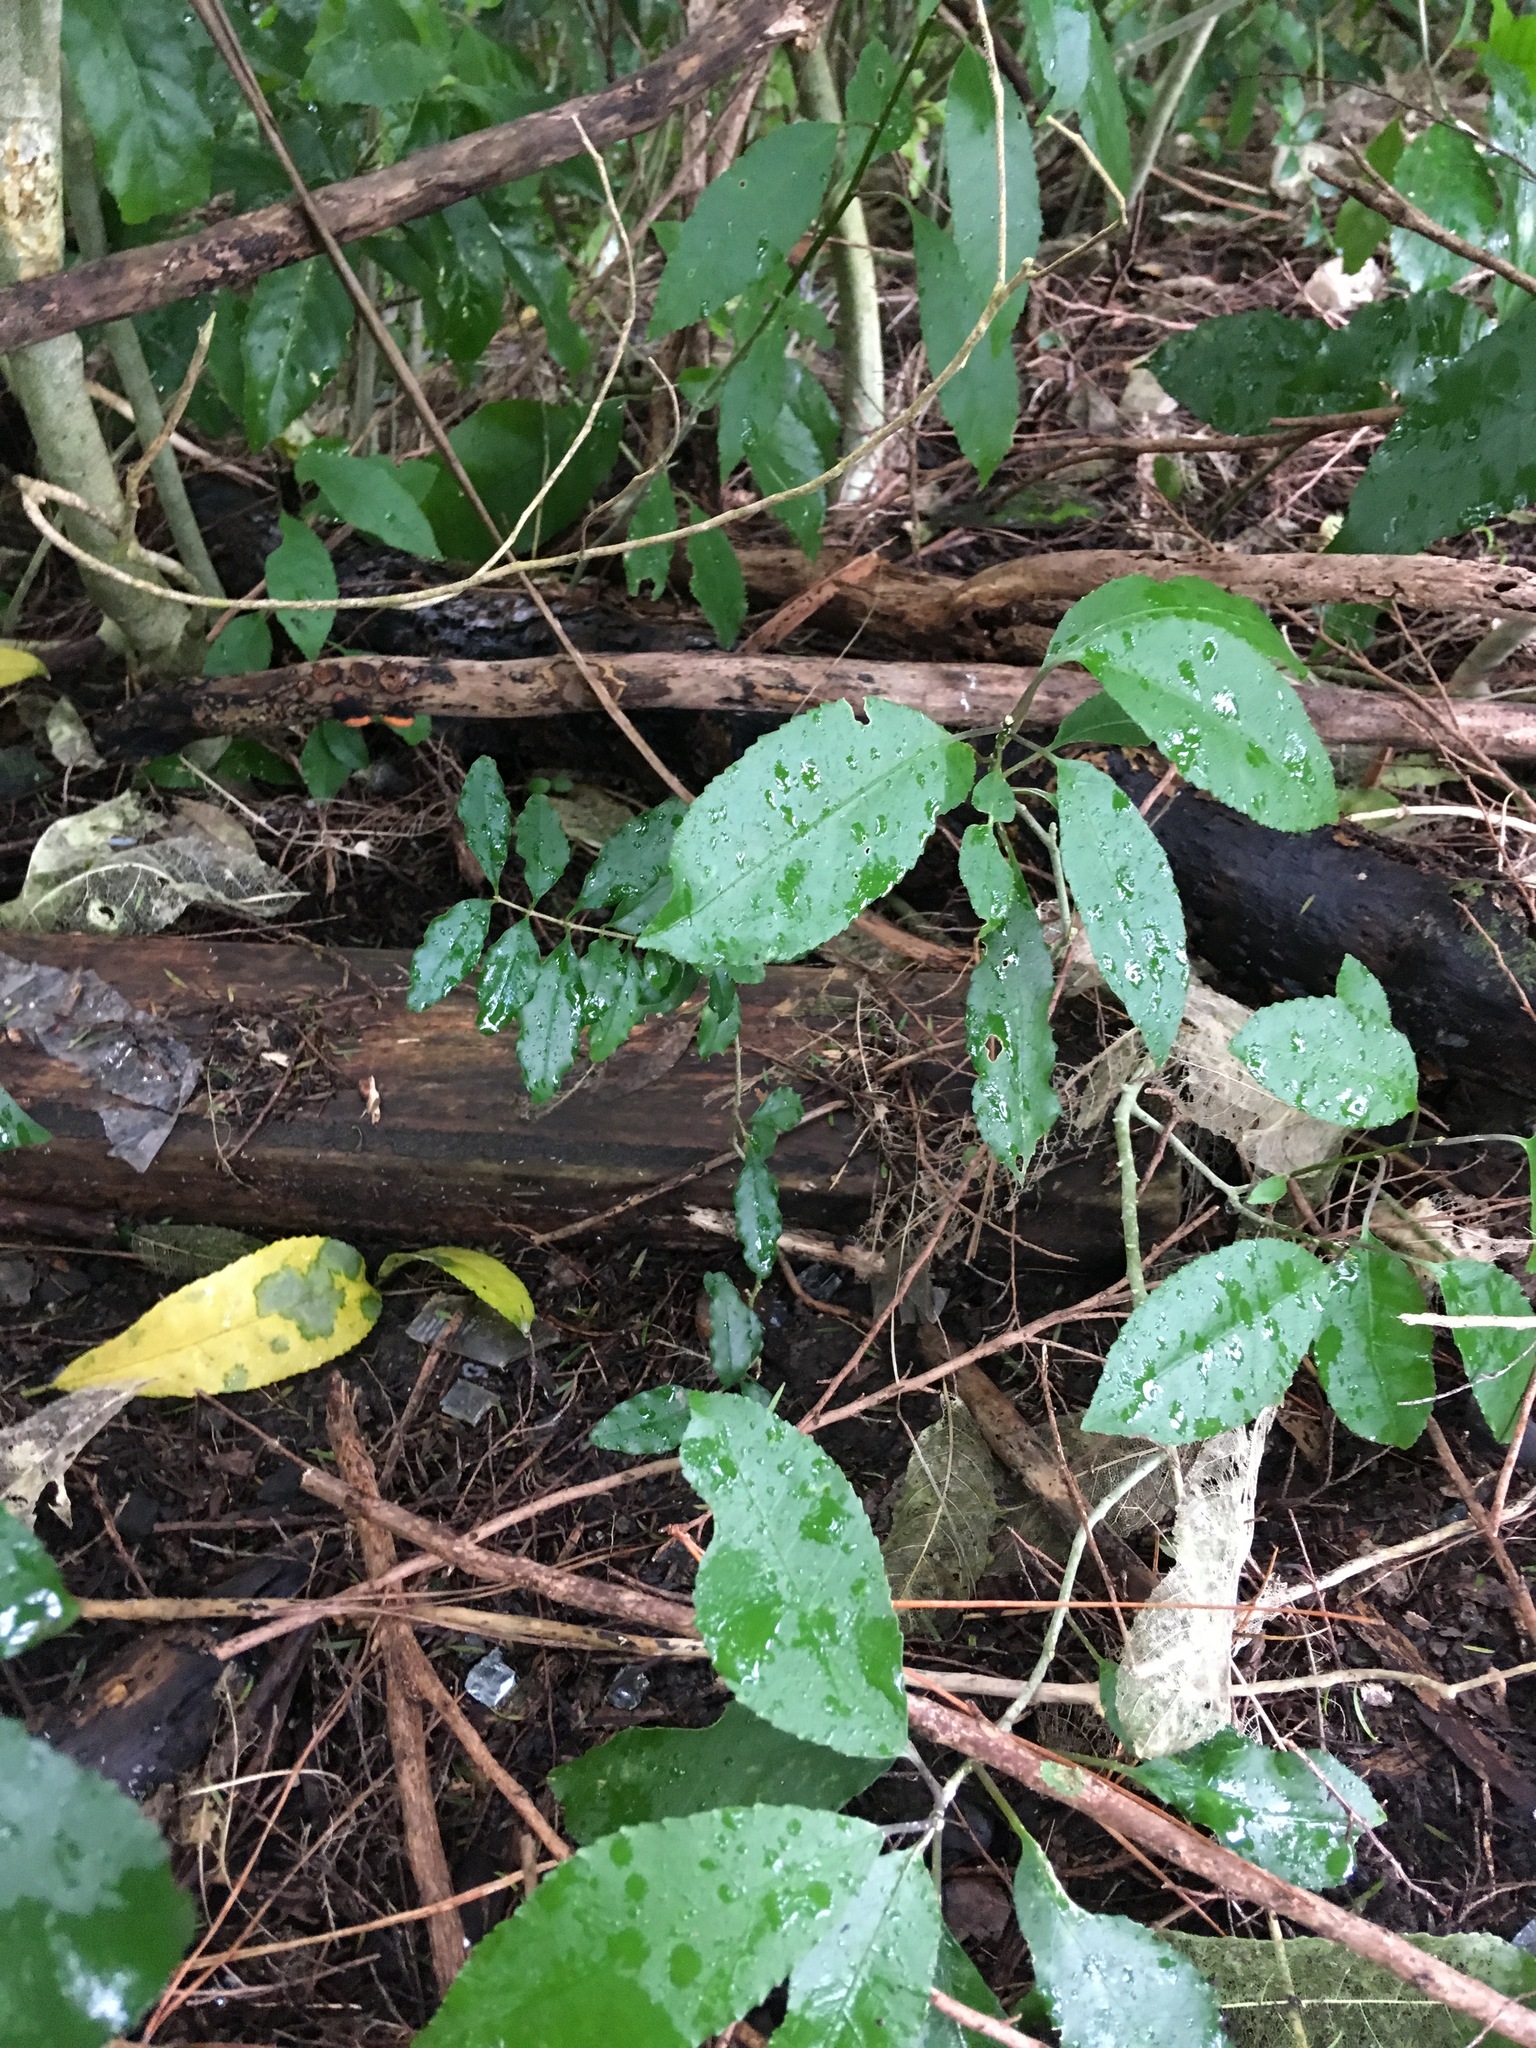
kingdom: Plantae
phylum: Tracheophyta
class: Magnoliopsida
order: Malpighiales
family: Violaceae
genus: Melicytus
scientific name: Melicytus ramiflorus
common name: Mahoe
